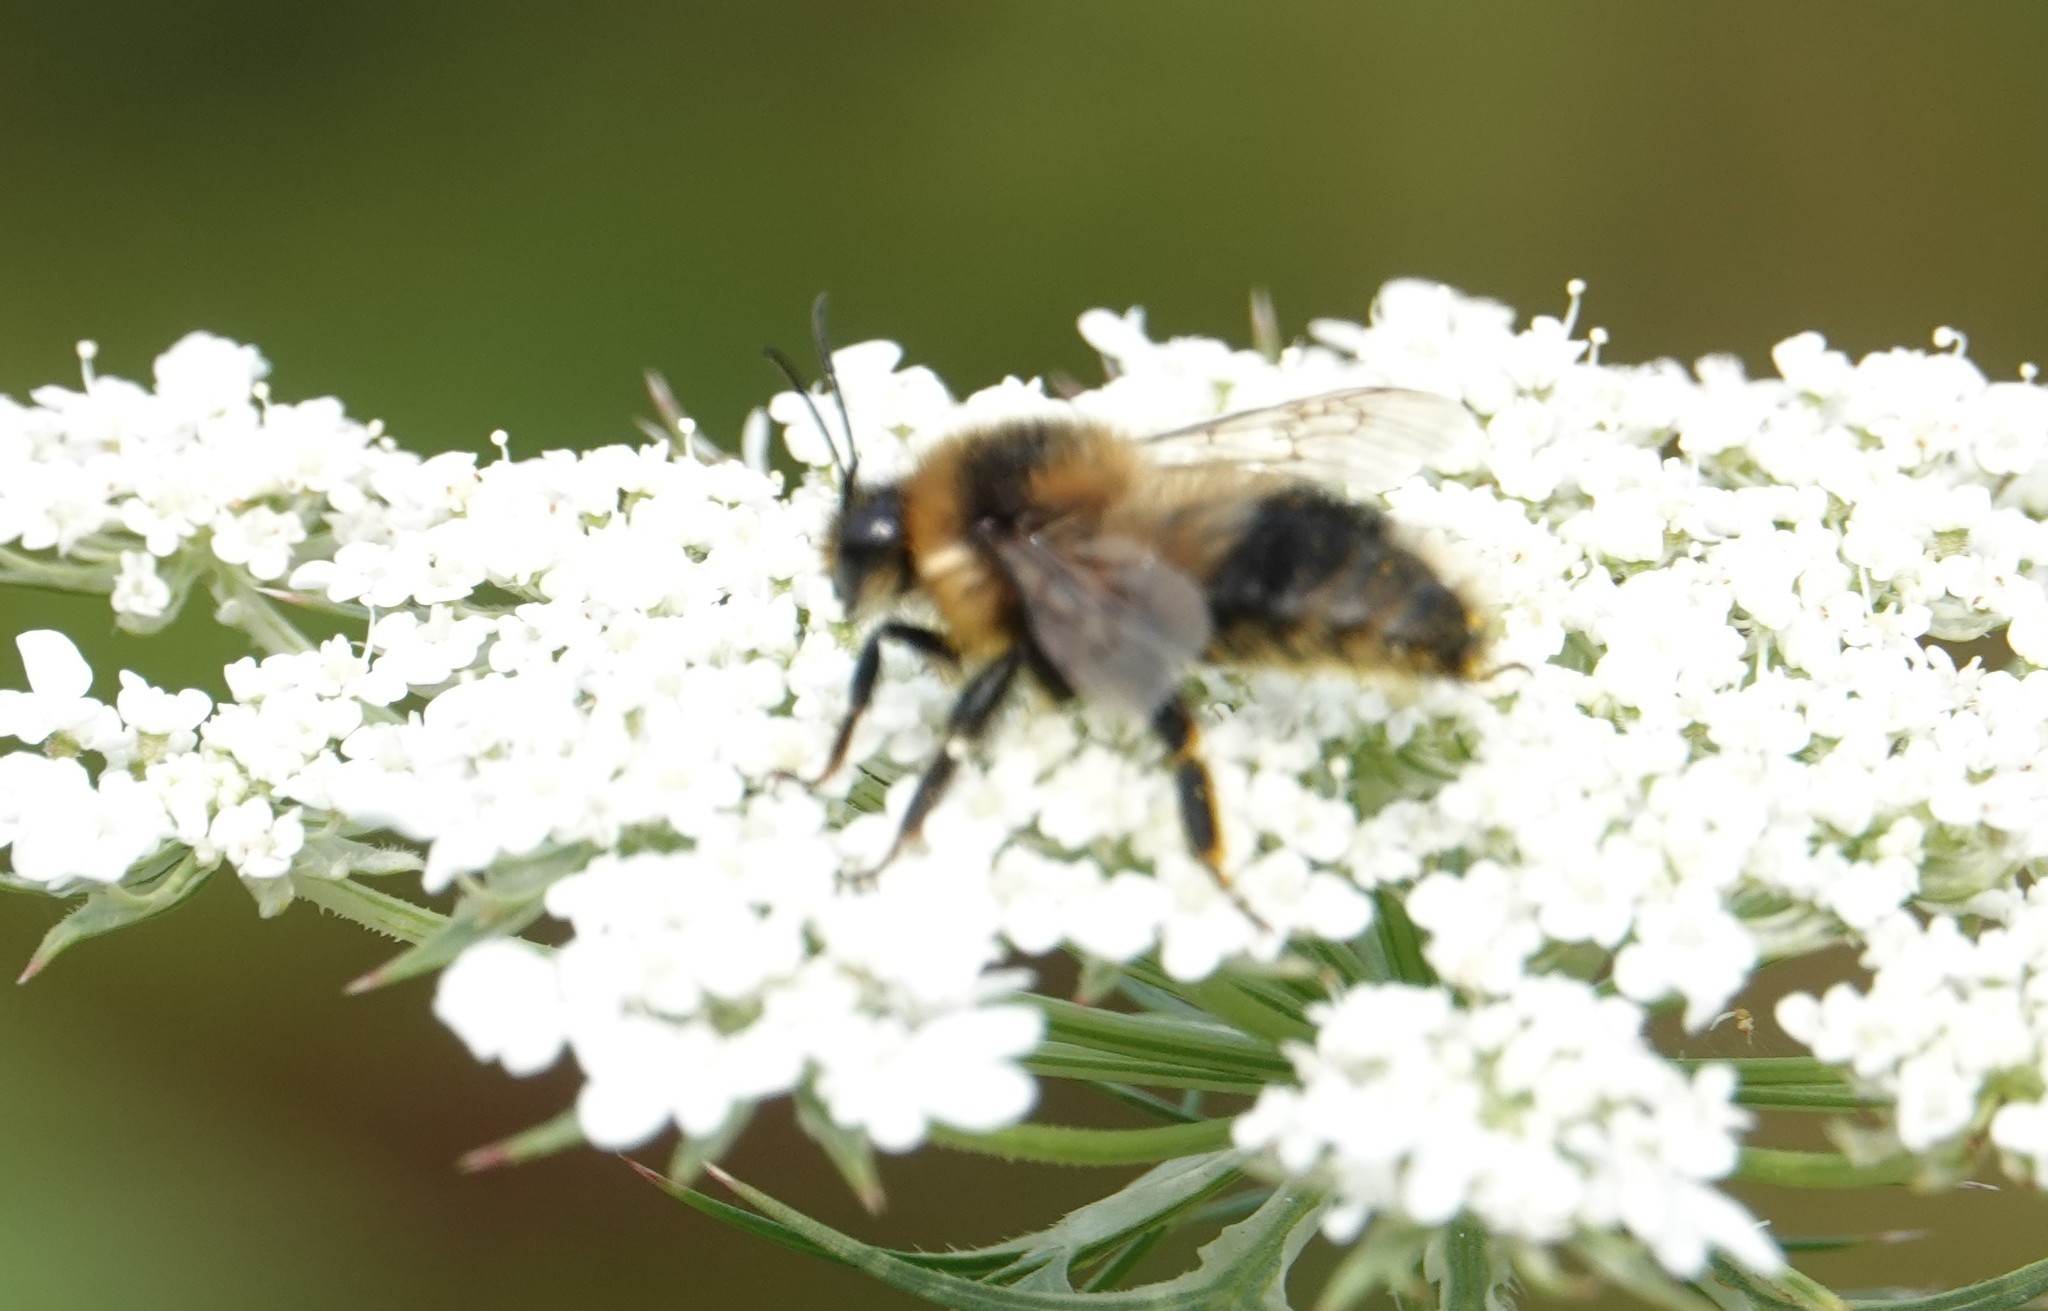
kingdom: Animalia
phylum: Arthropoda
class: Insecta
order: Hymenoptera
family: Apidae
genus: Bombus
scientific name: Bombus rufocinctus
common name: Red-belted bumble bee
